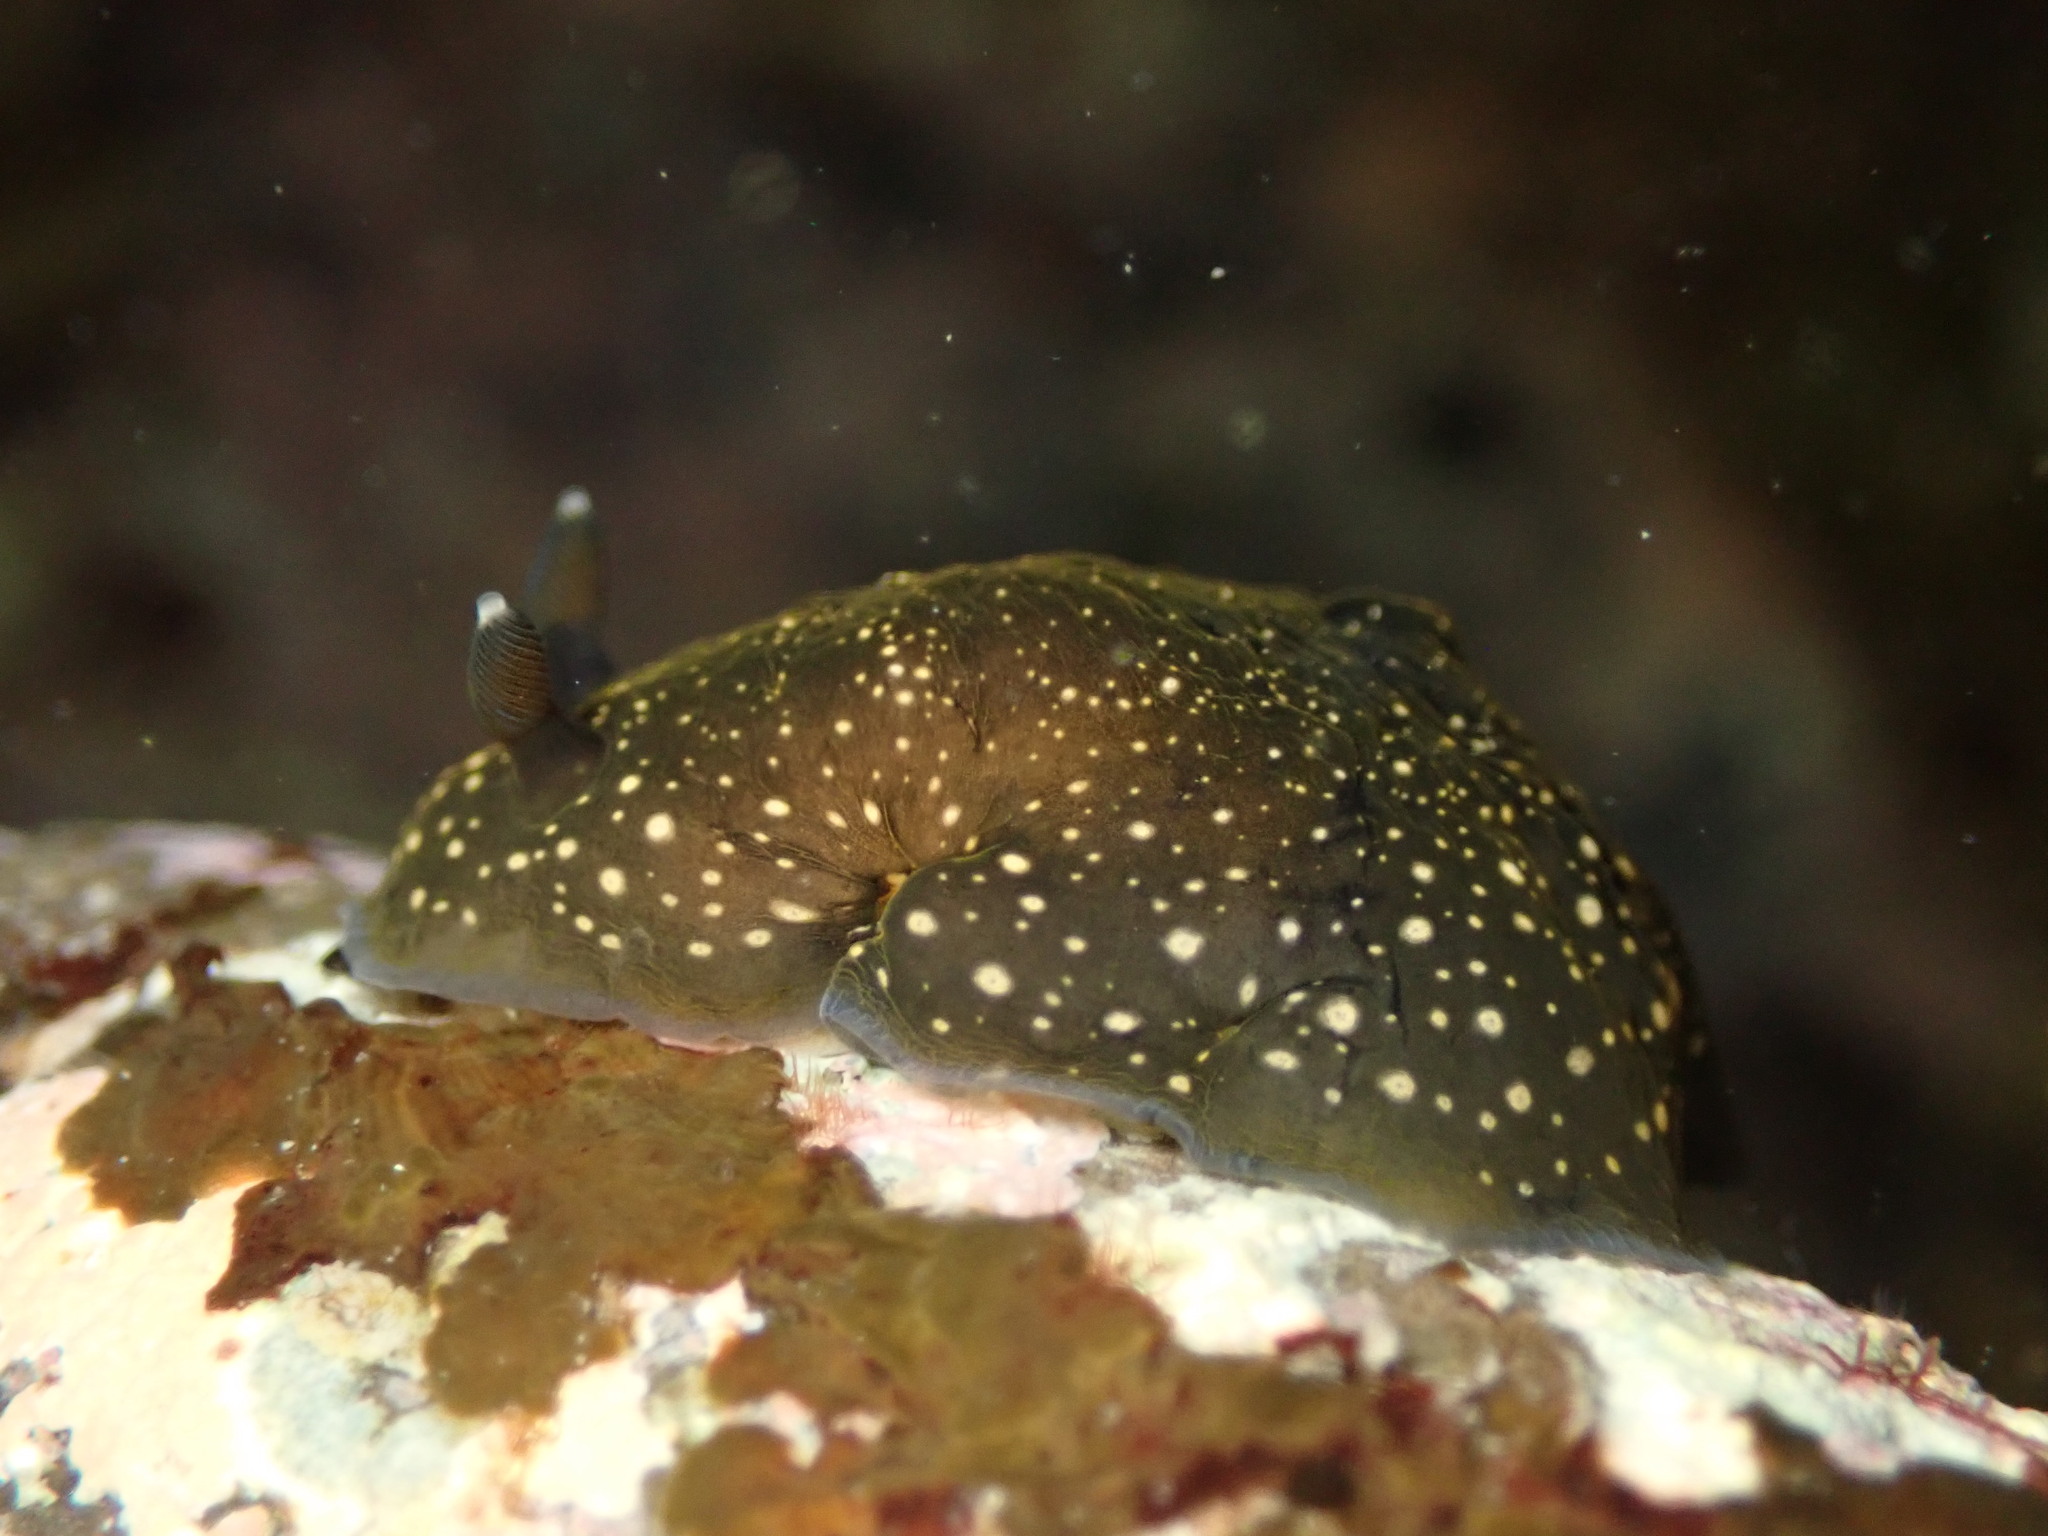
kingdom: Animalia
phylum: Mollusca
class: Gastropoda
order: Nudibranchia
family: Dendrodorididae
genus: Dendrodoris
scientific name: Dendrodoris nigra
